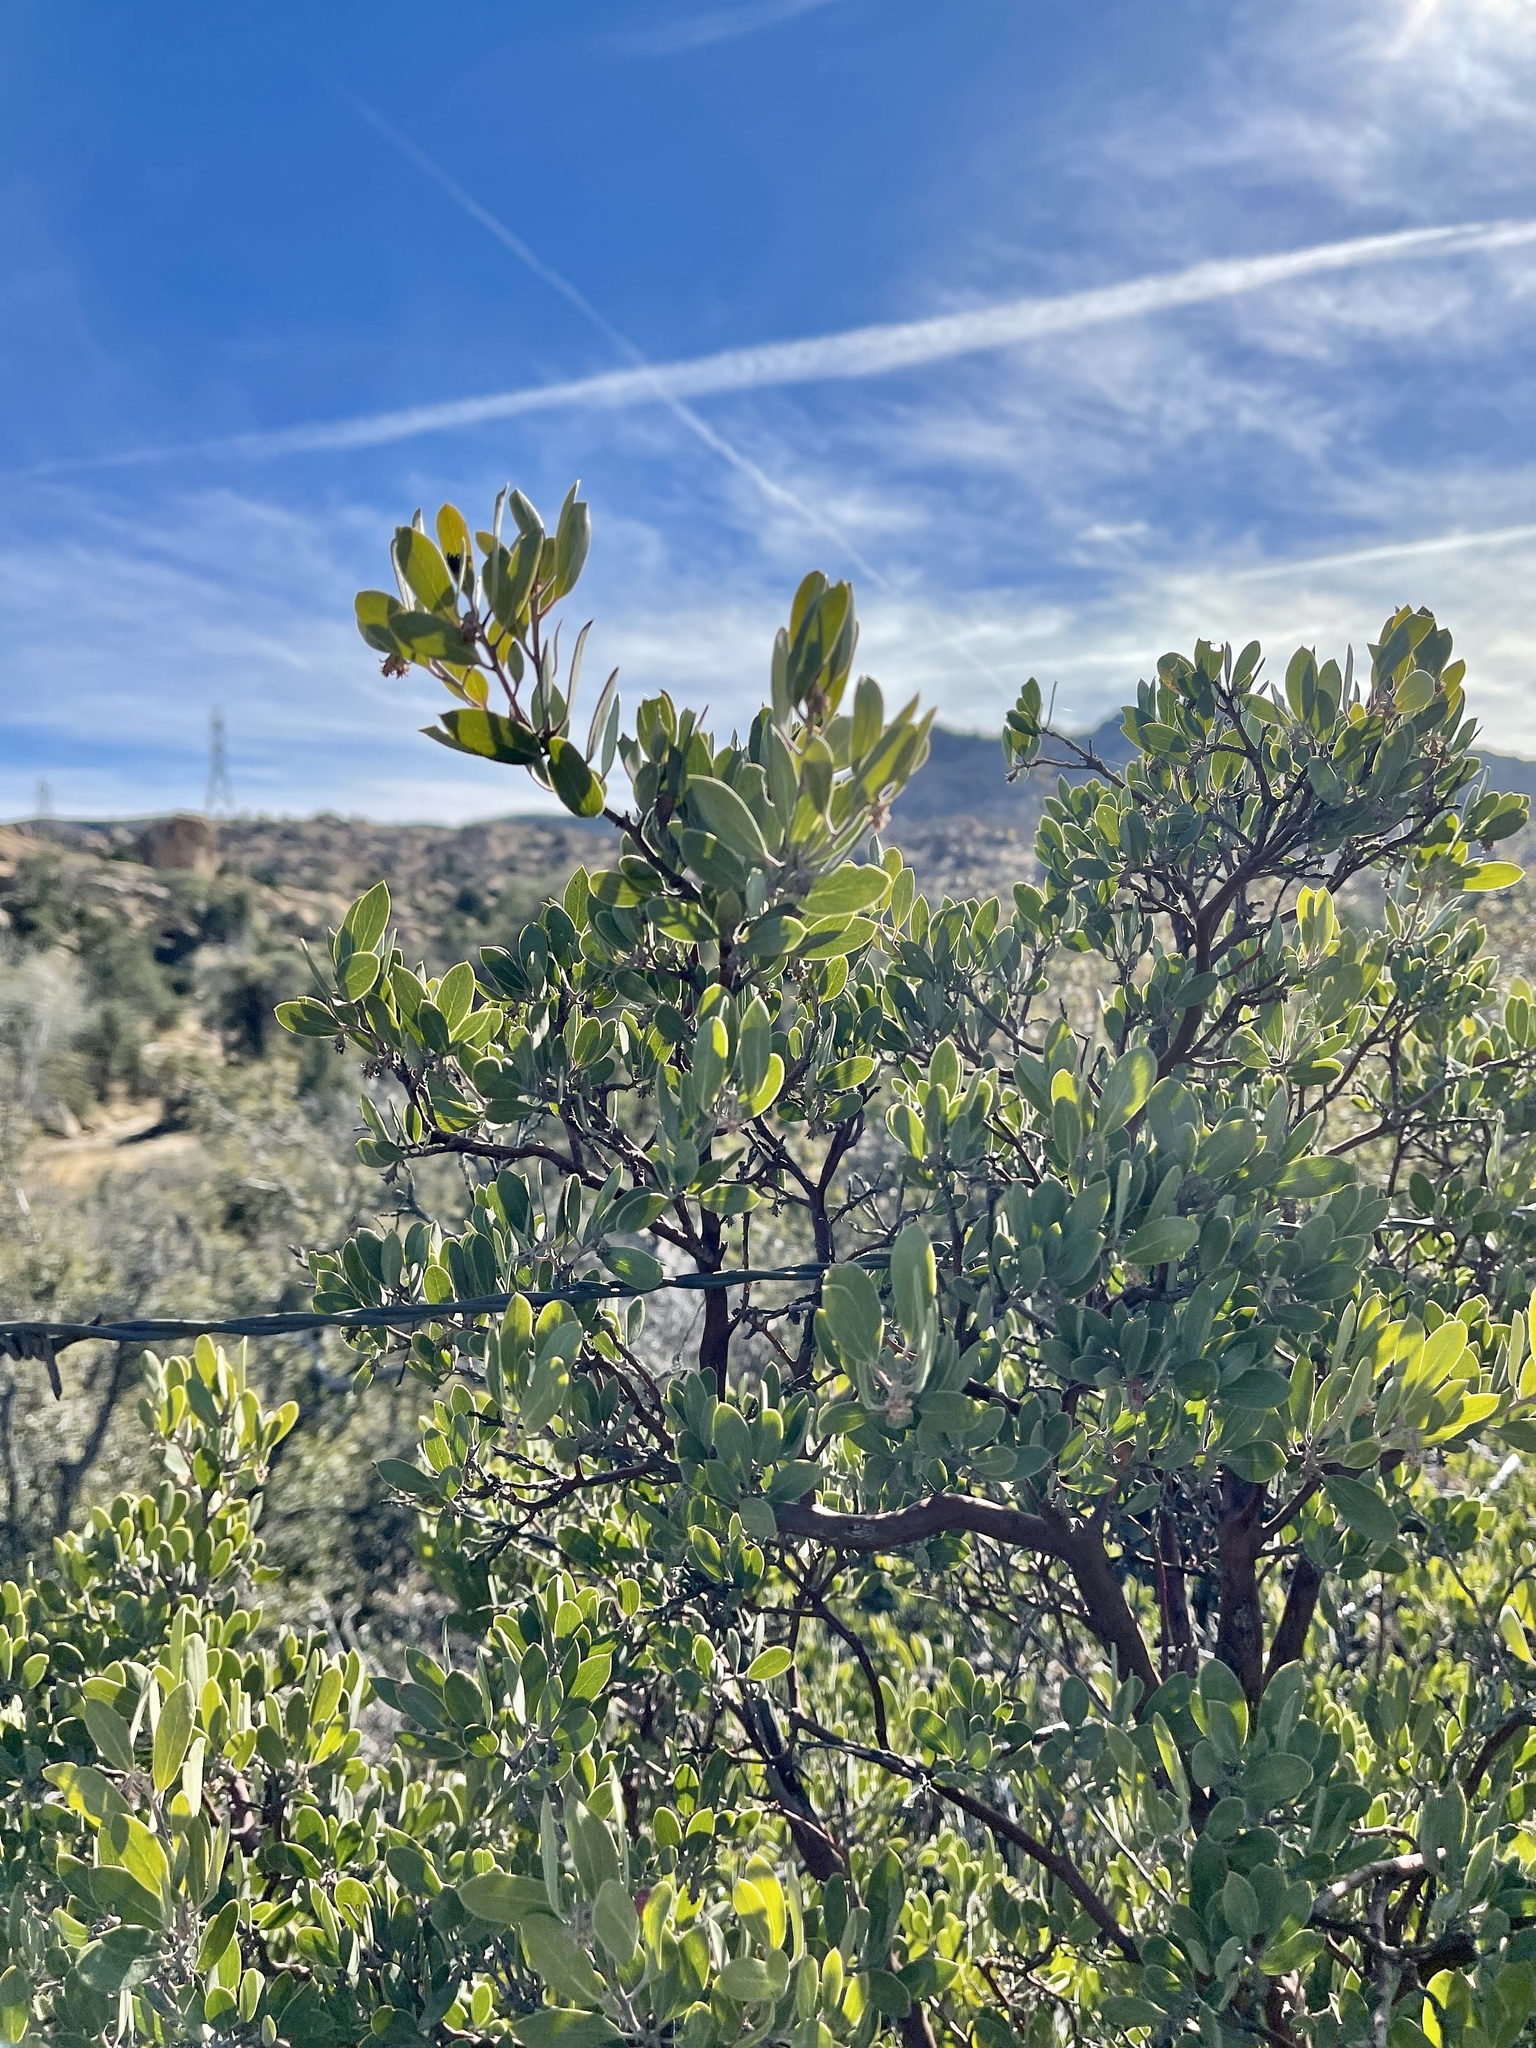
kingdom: Plantae
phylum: Tracheophyta
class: Magnoliopsida
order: Ericales
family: Ericaceae
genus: Arctostaphylos
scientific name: Arctostaphylos pungens
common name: Mexican manzanita
